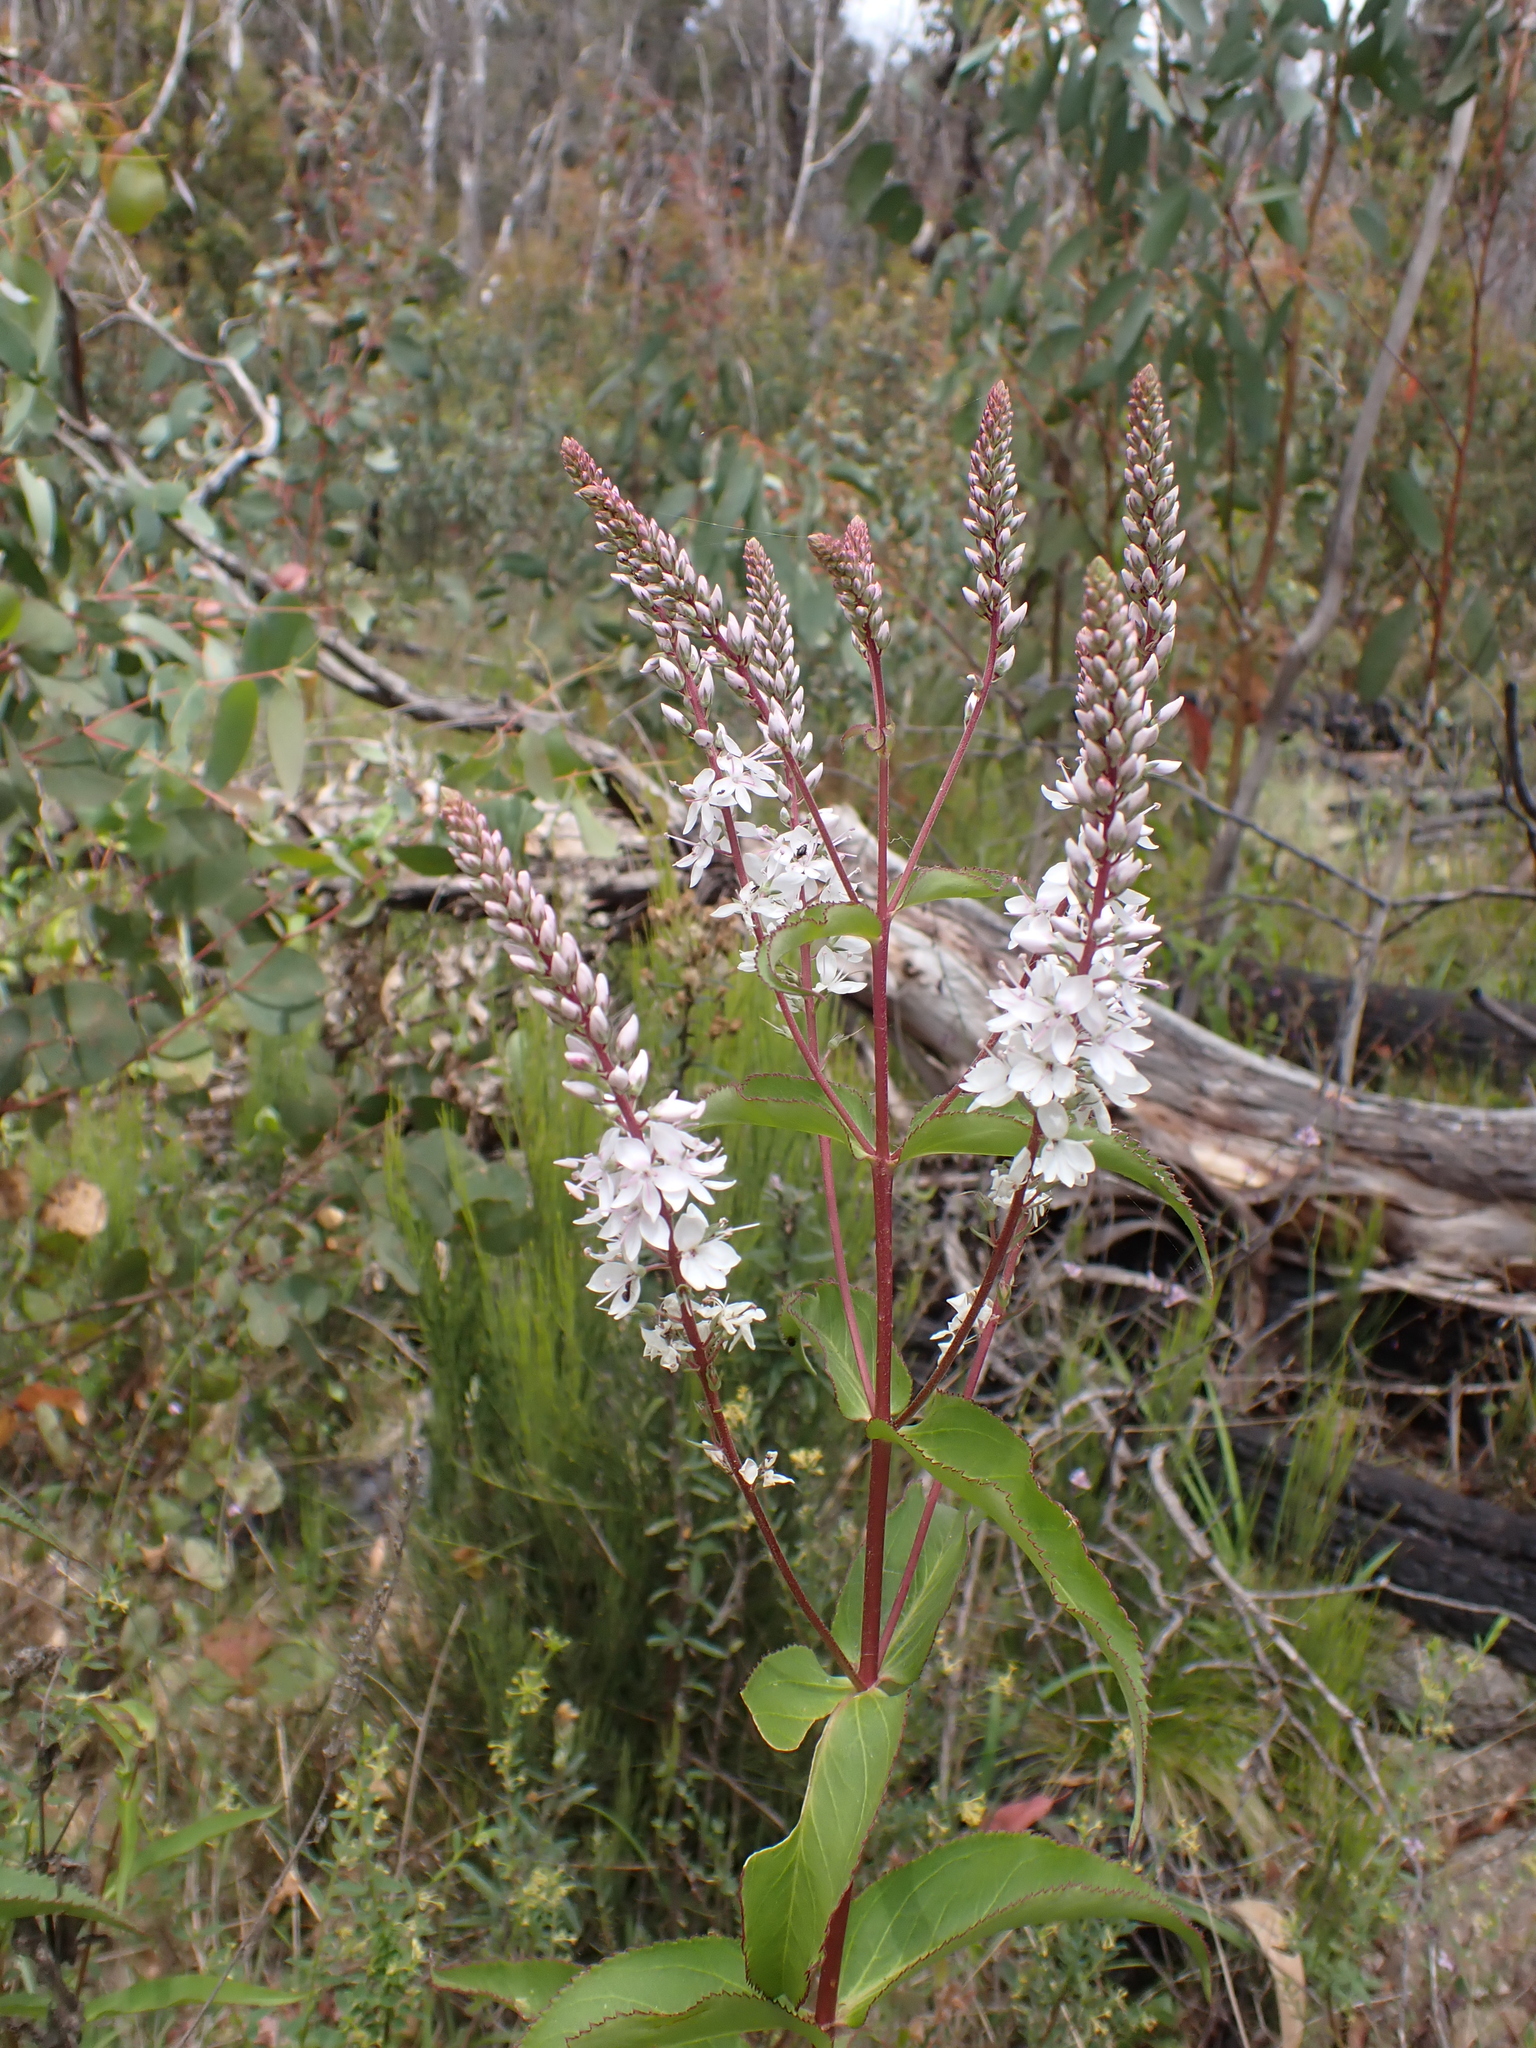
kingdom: Plantae
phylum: Tracheophyta
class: Magnoliopsida
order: Lamiales
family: Plantaginaceae
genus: Veronica
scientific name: Veronica derwentiana
